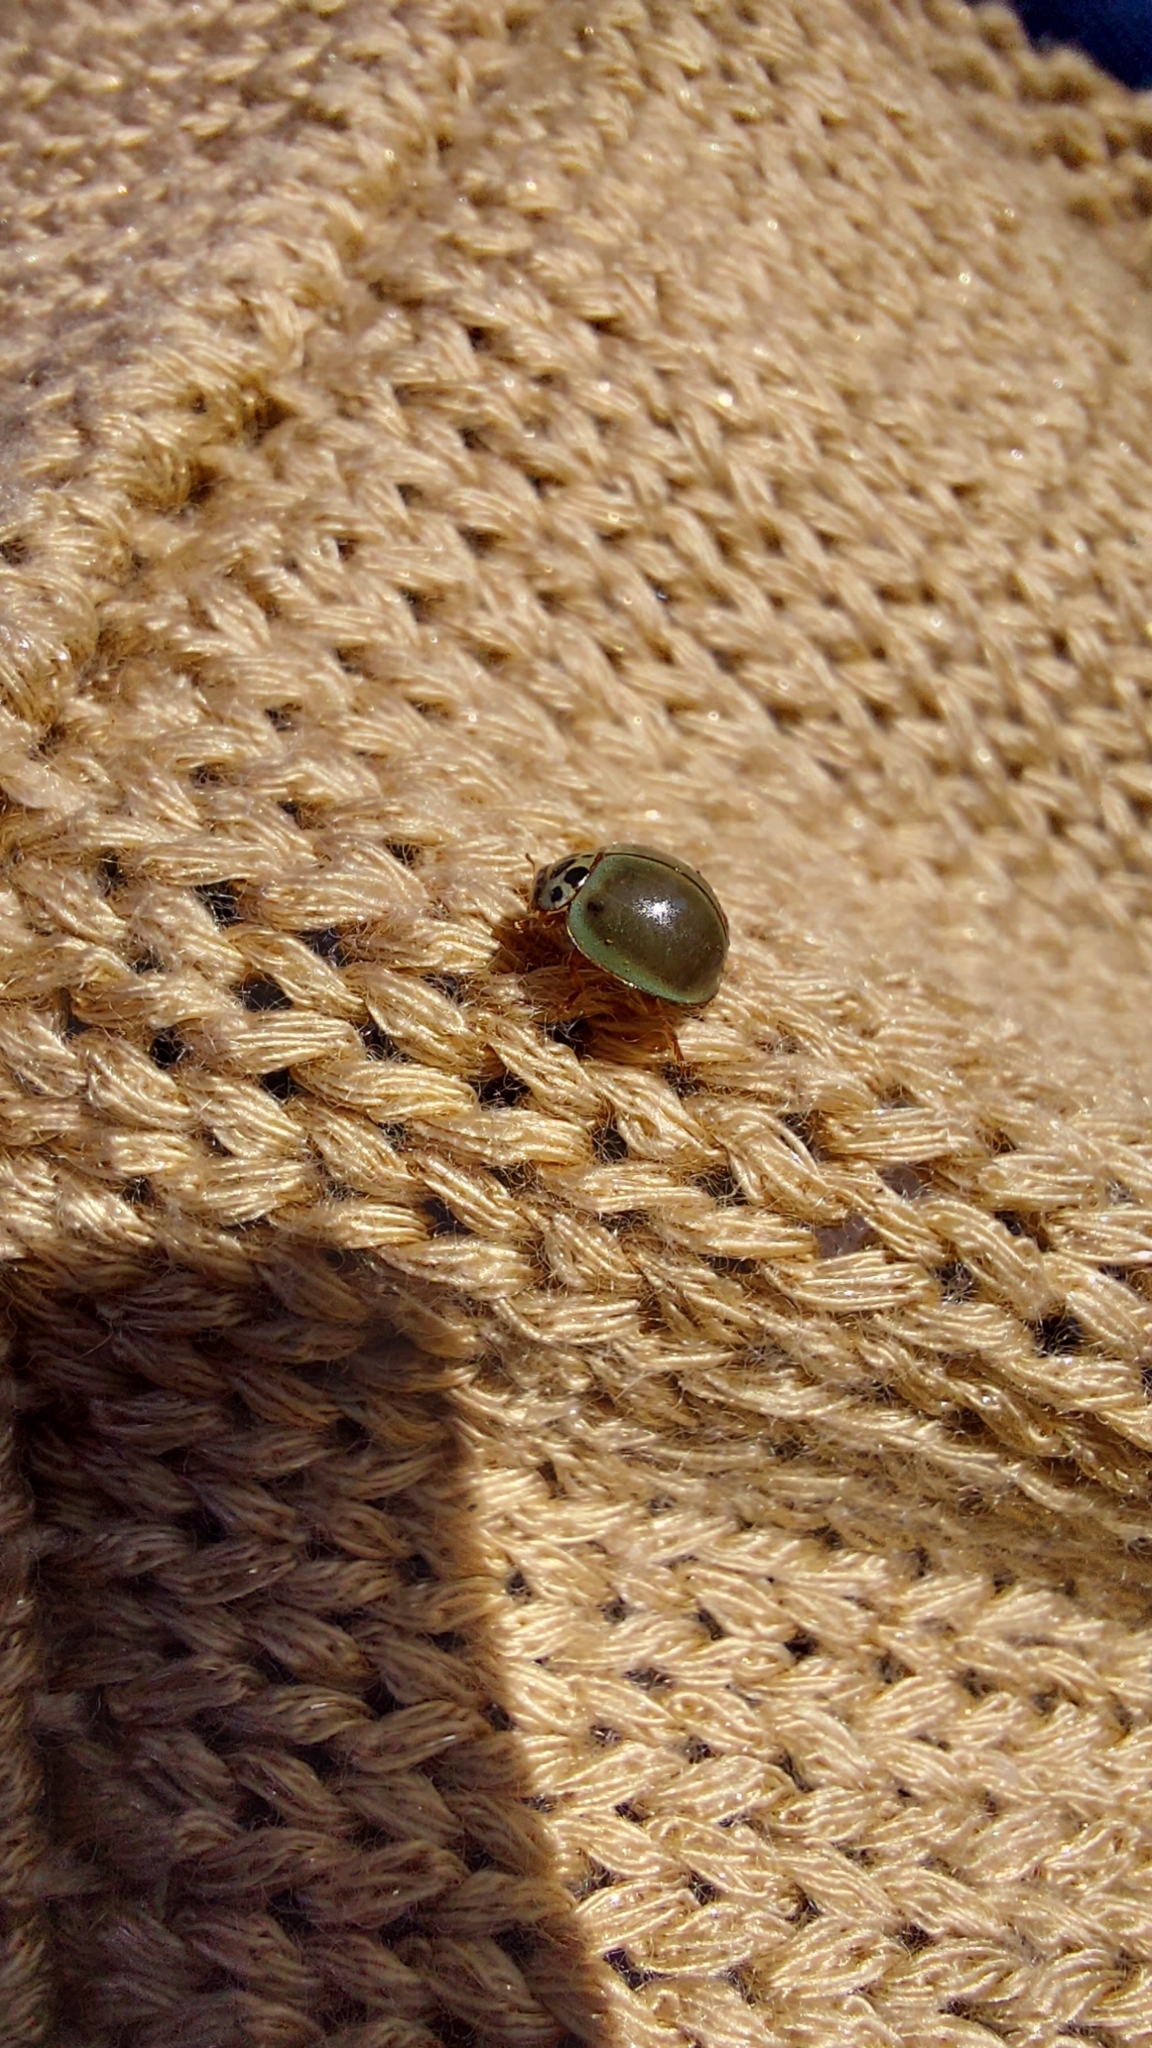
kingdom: Animalia
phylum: Arthropoda
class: Insecta
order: Coleoptera
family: Coccinellidae
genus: Neoharmonia
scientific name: Neoharmonia
